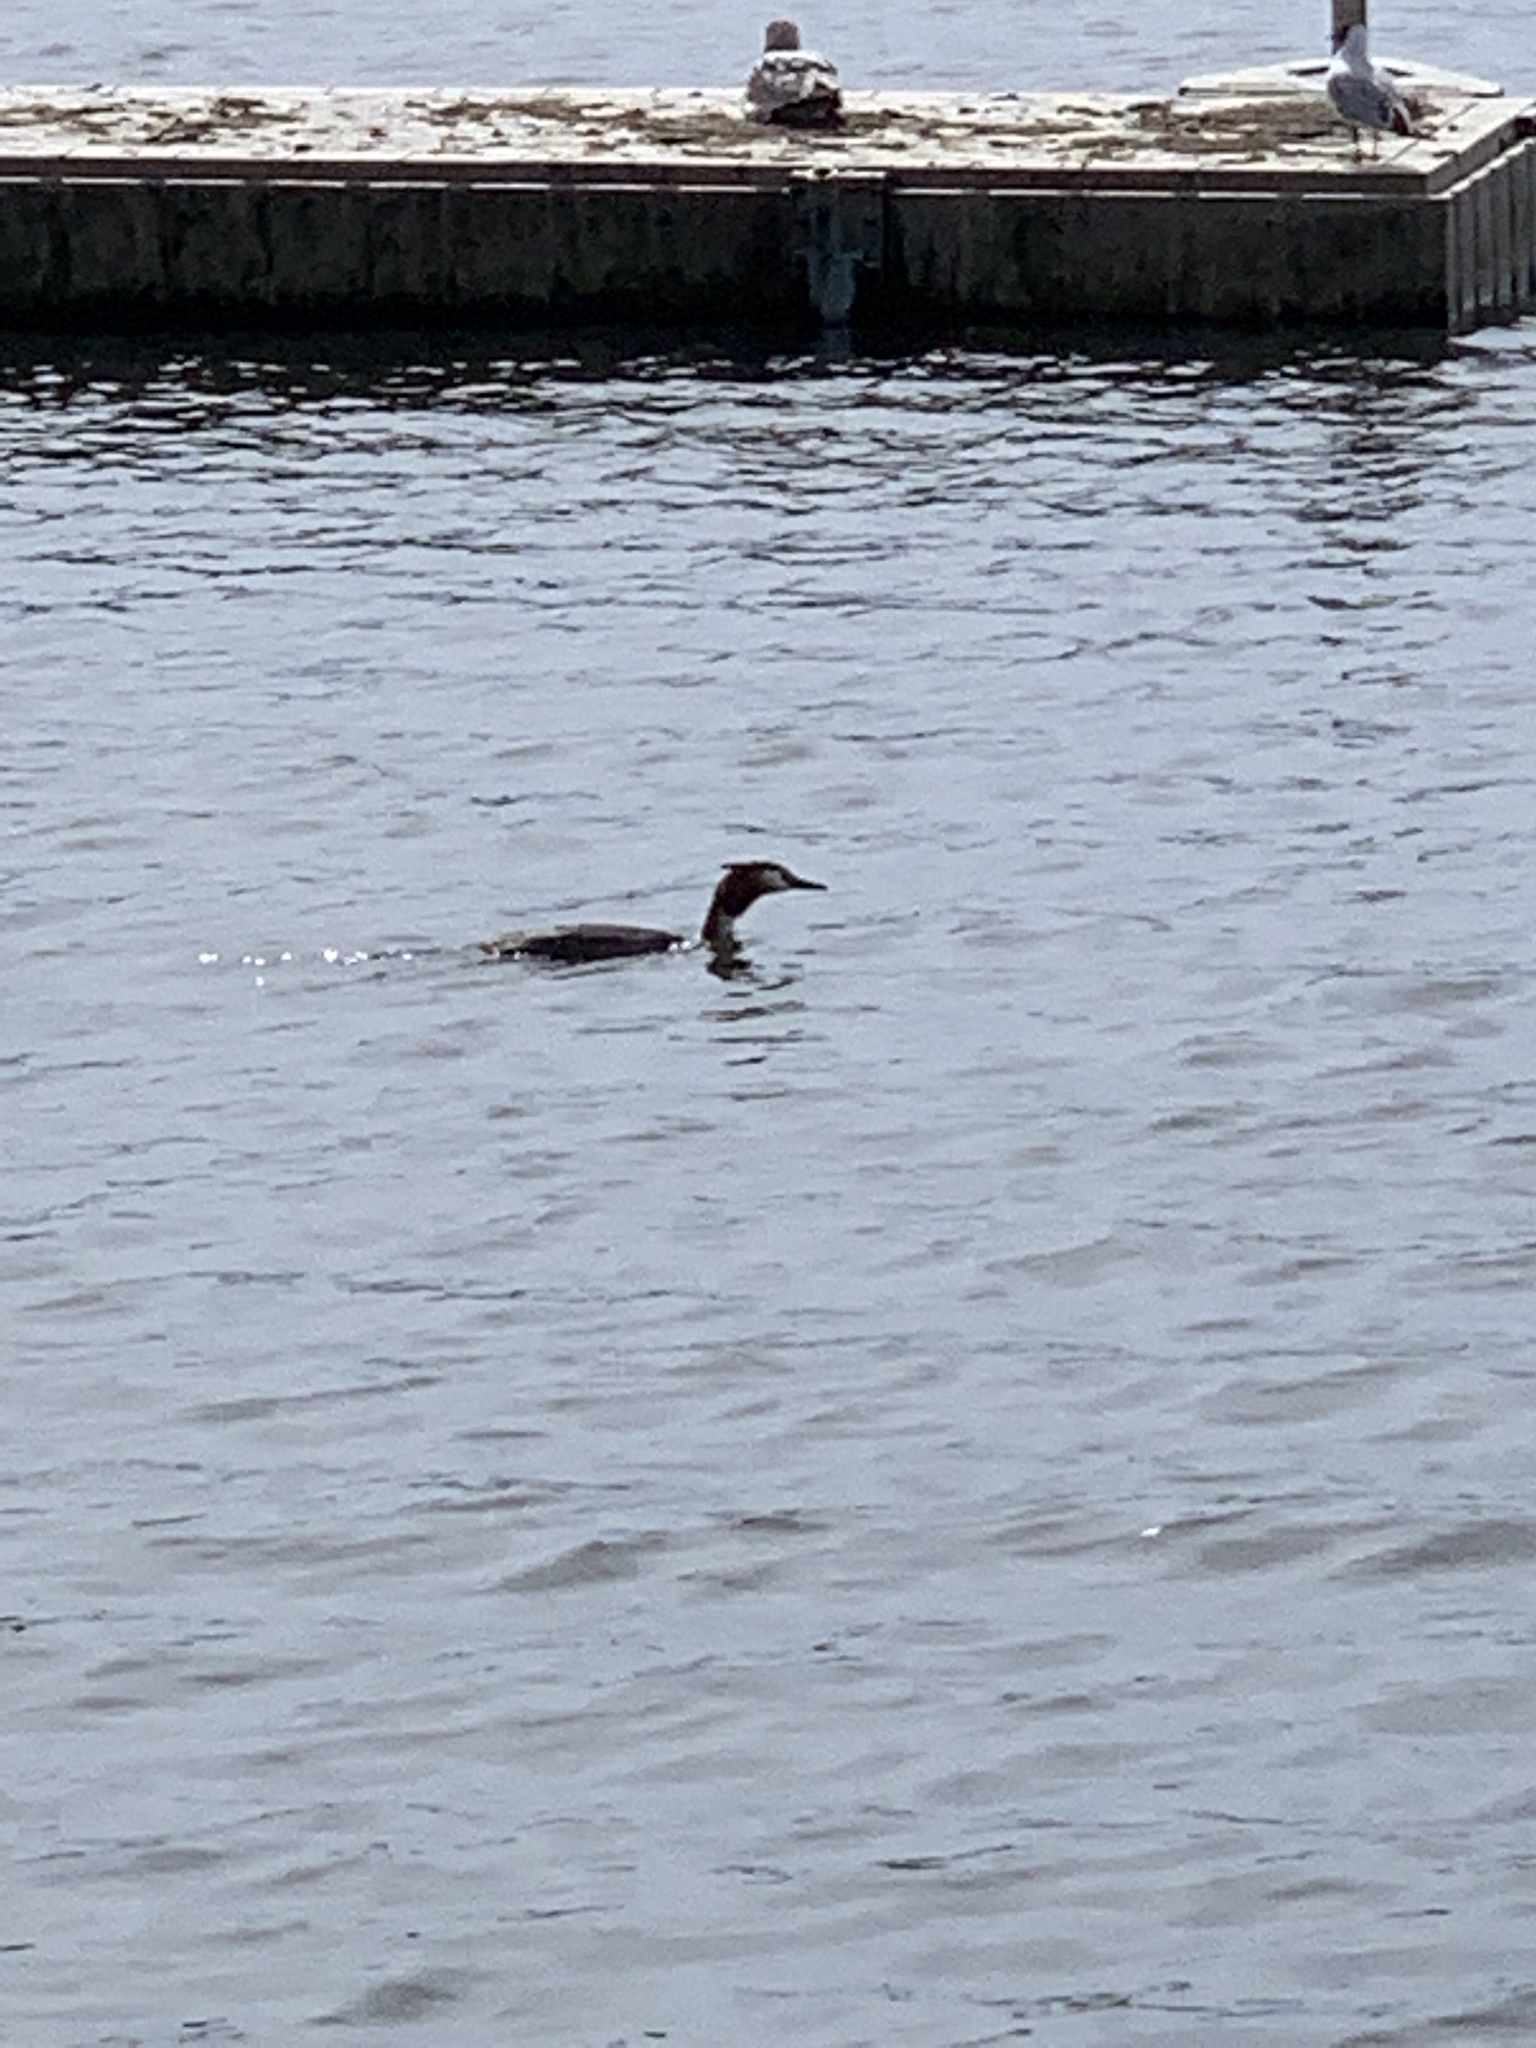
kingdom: Animalia
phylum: Chordata
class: Aves
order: Podicipediformes
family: Podicipedidae
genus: Podiceps
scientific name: Podiceps cristatus
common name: Great crested grebe
